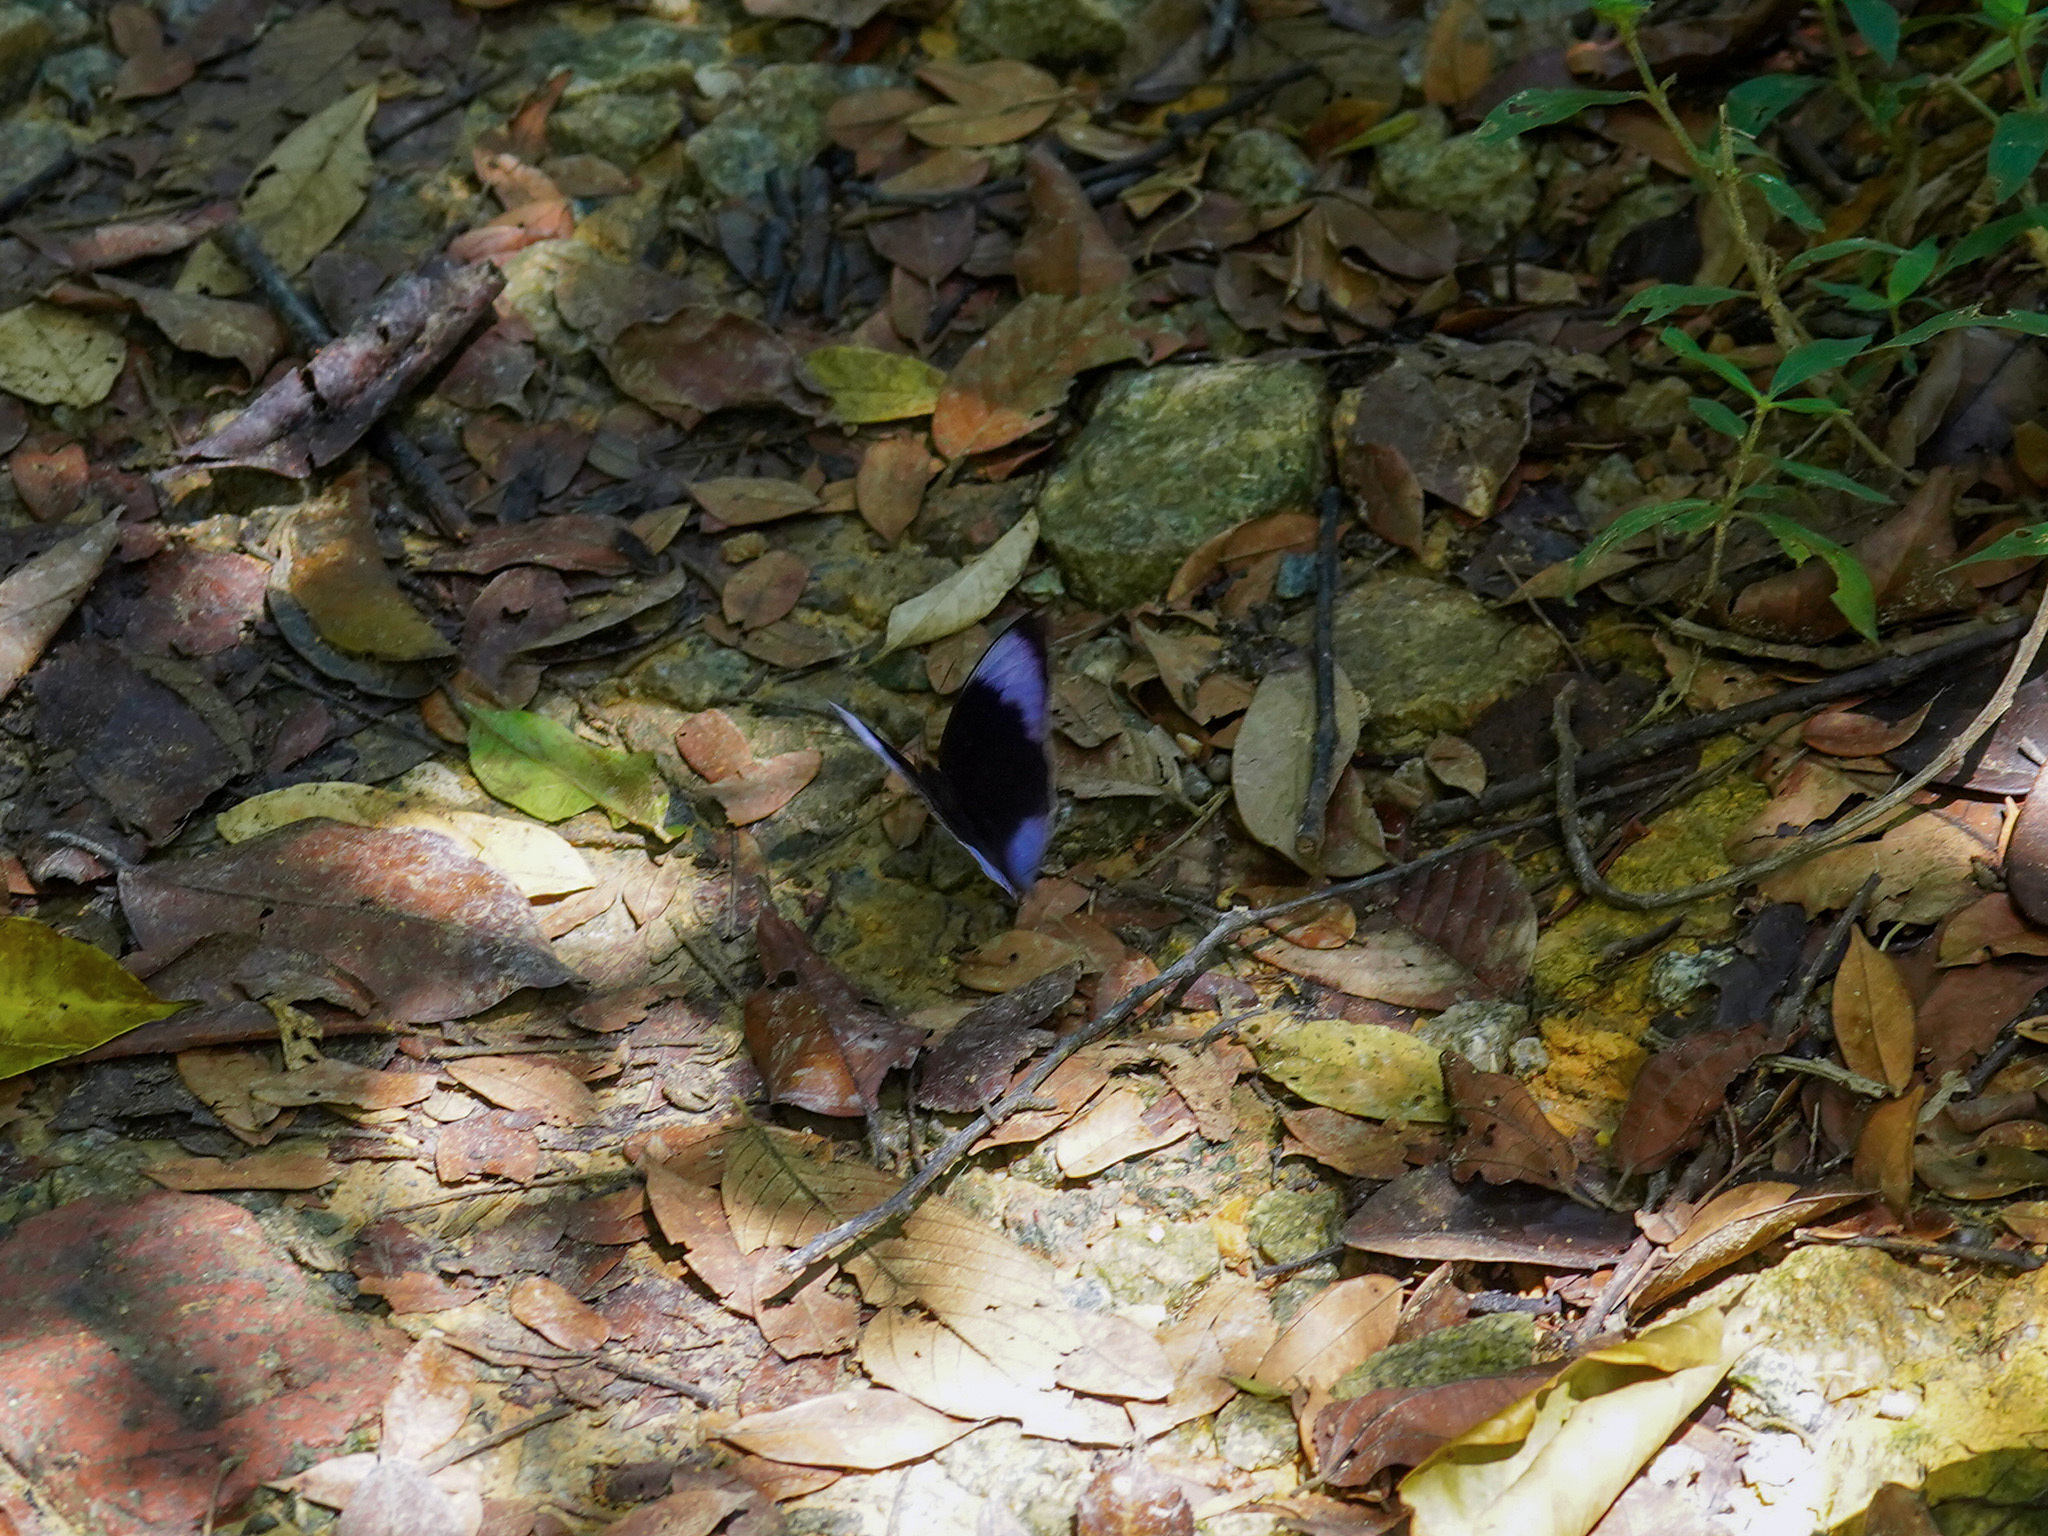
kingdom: Animalia
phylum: Arthropoda
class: Insecta
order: Lepidoptera
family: Nymphalidae
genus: Zeuxidia
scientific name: Zeuxidia amethysta
